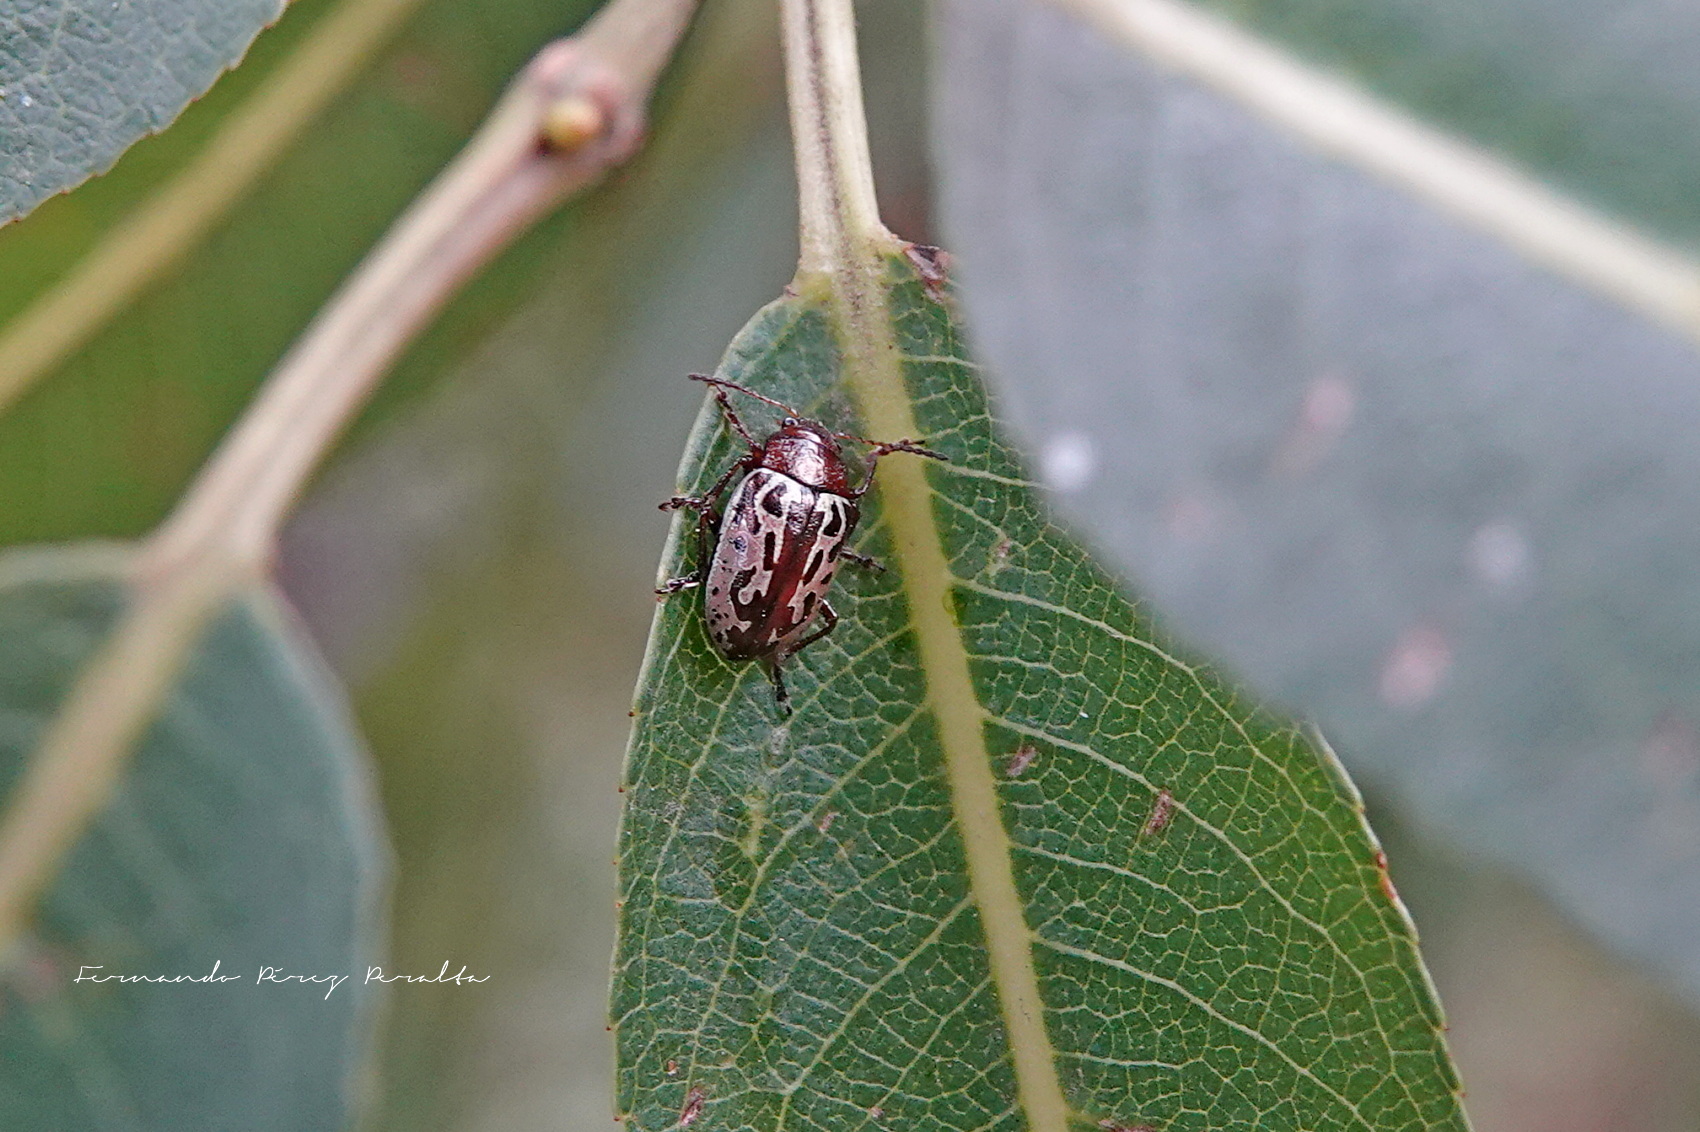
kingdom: Animalia
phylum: Arthropoda
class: Insecta
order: Coleoptera
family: Chrysomelidae
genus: Calligrapha
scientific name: Calligrapha
